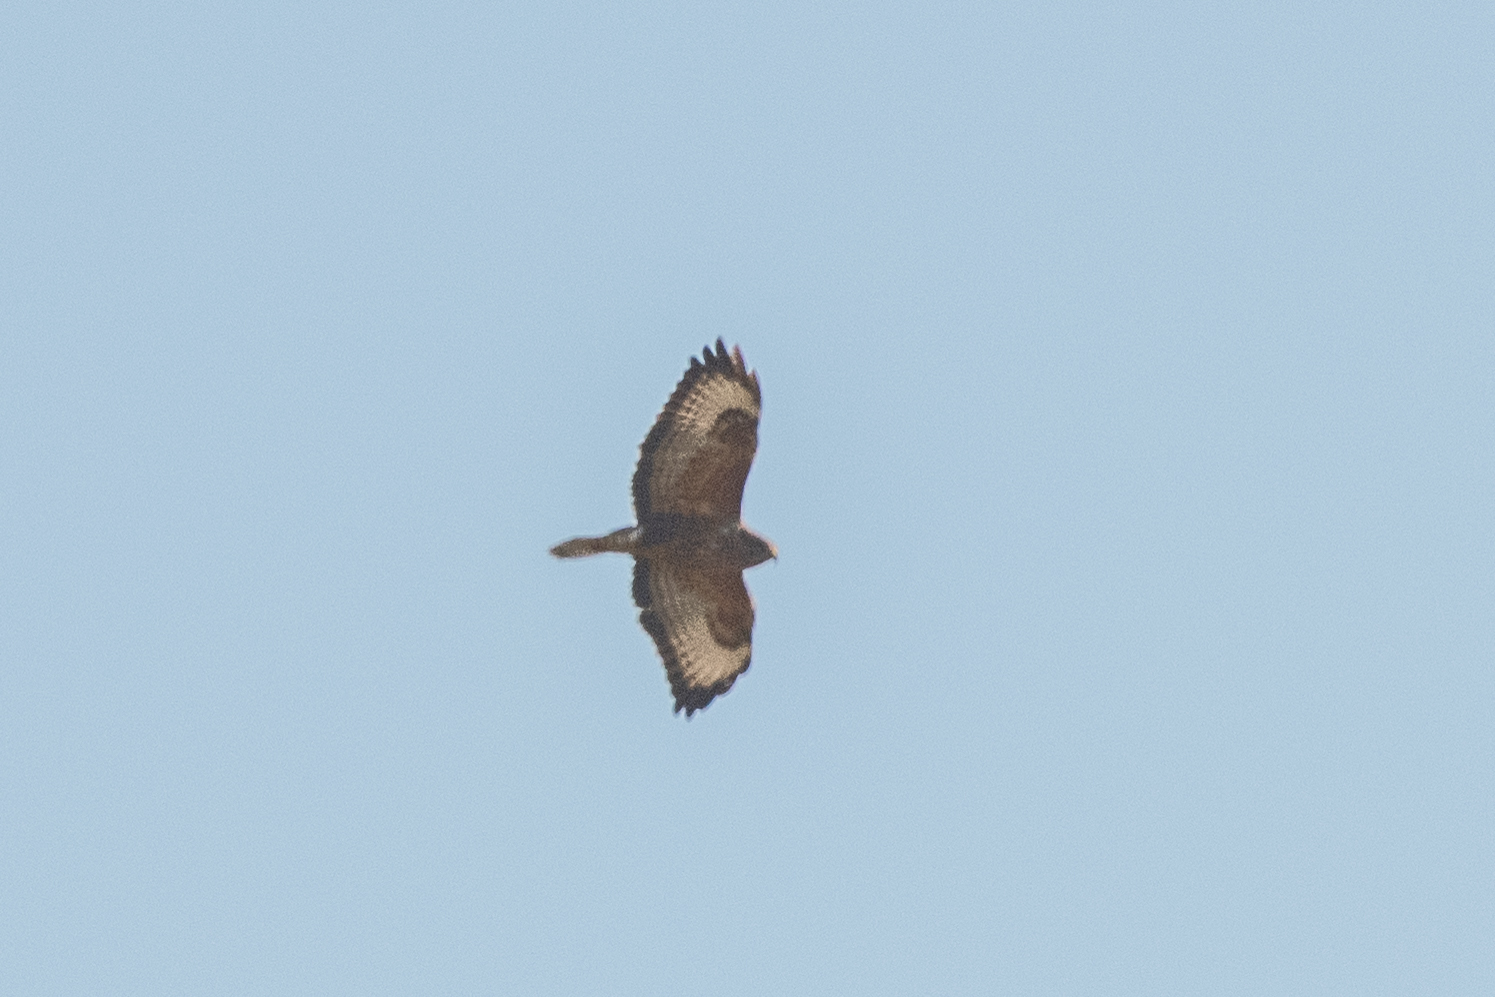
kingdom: Animalia
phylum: Chordata
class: Aves
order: Accipitriformes
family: Accipitridae
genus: Buteo
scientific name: Buteo buteo
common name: Common buzzard
